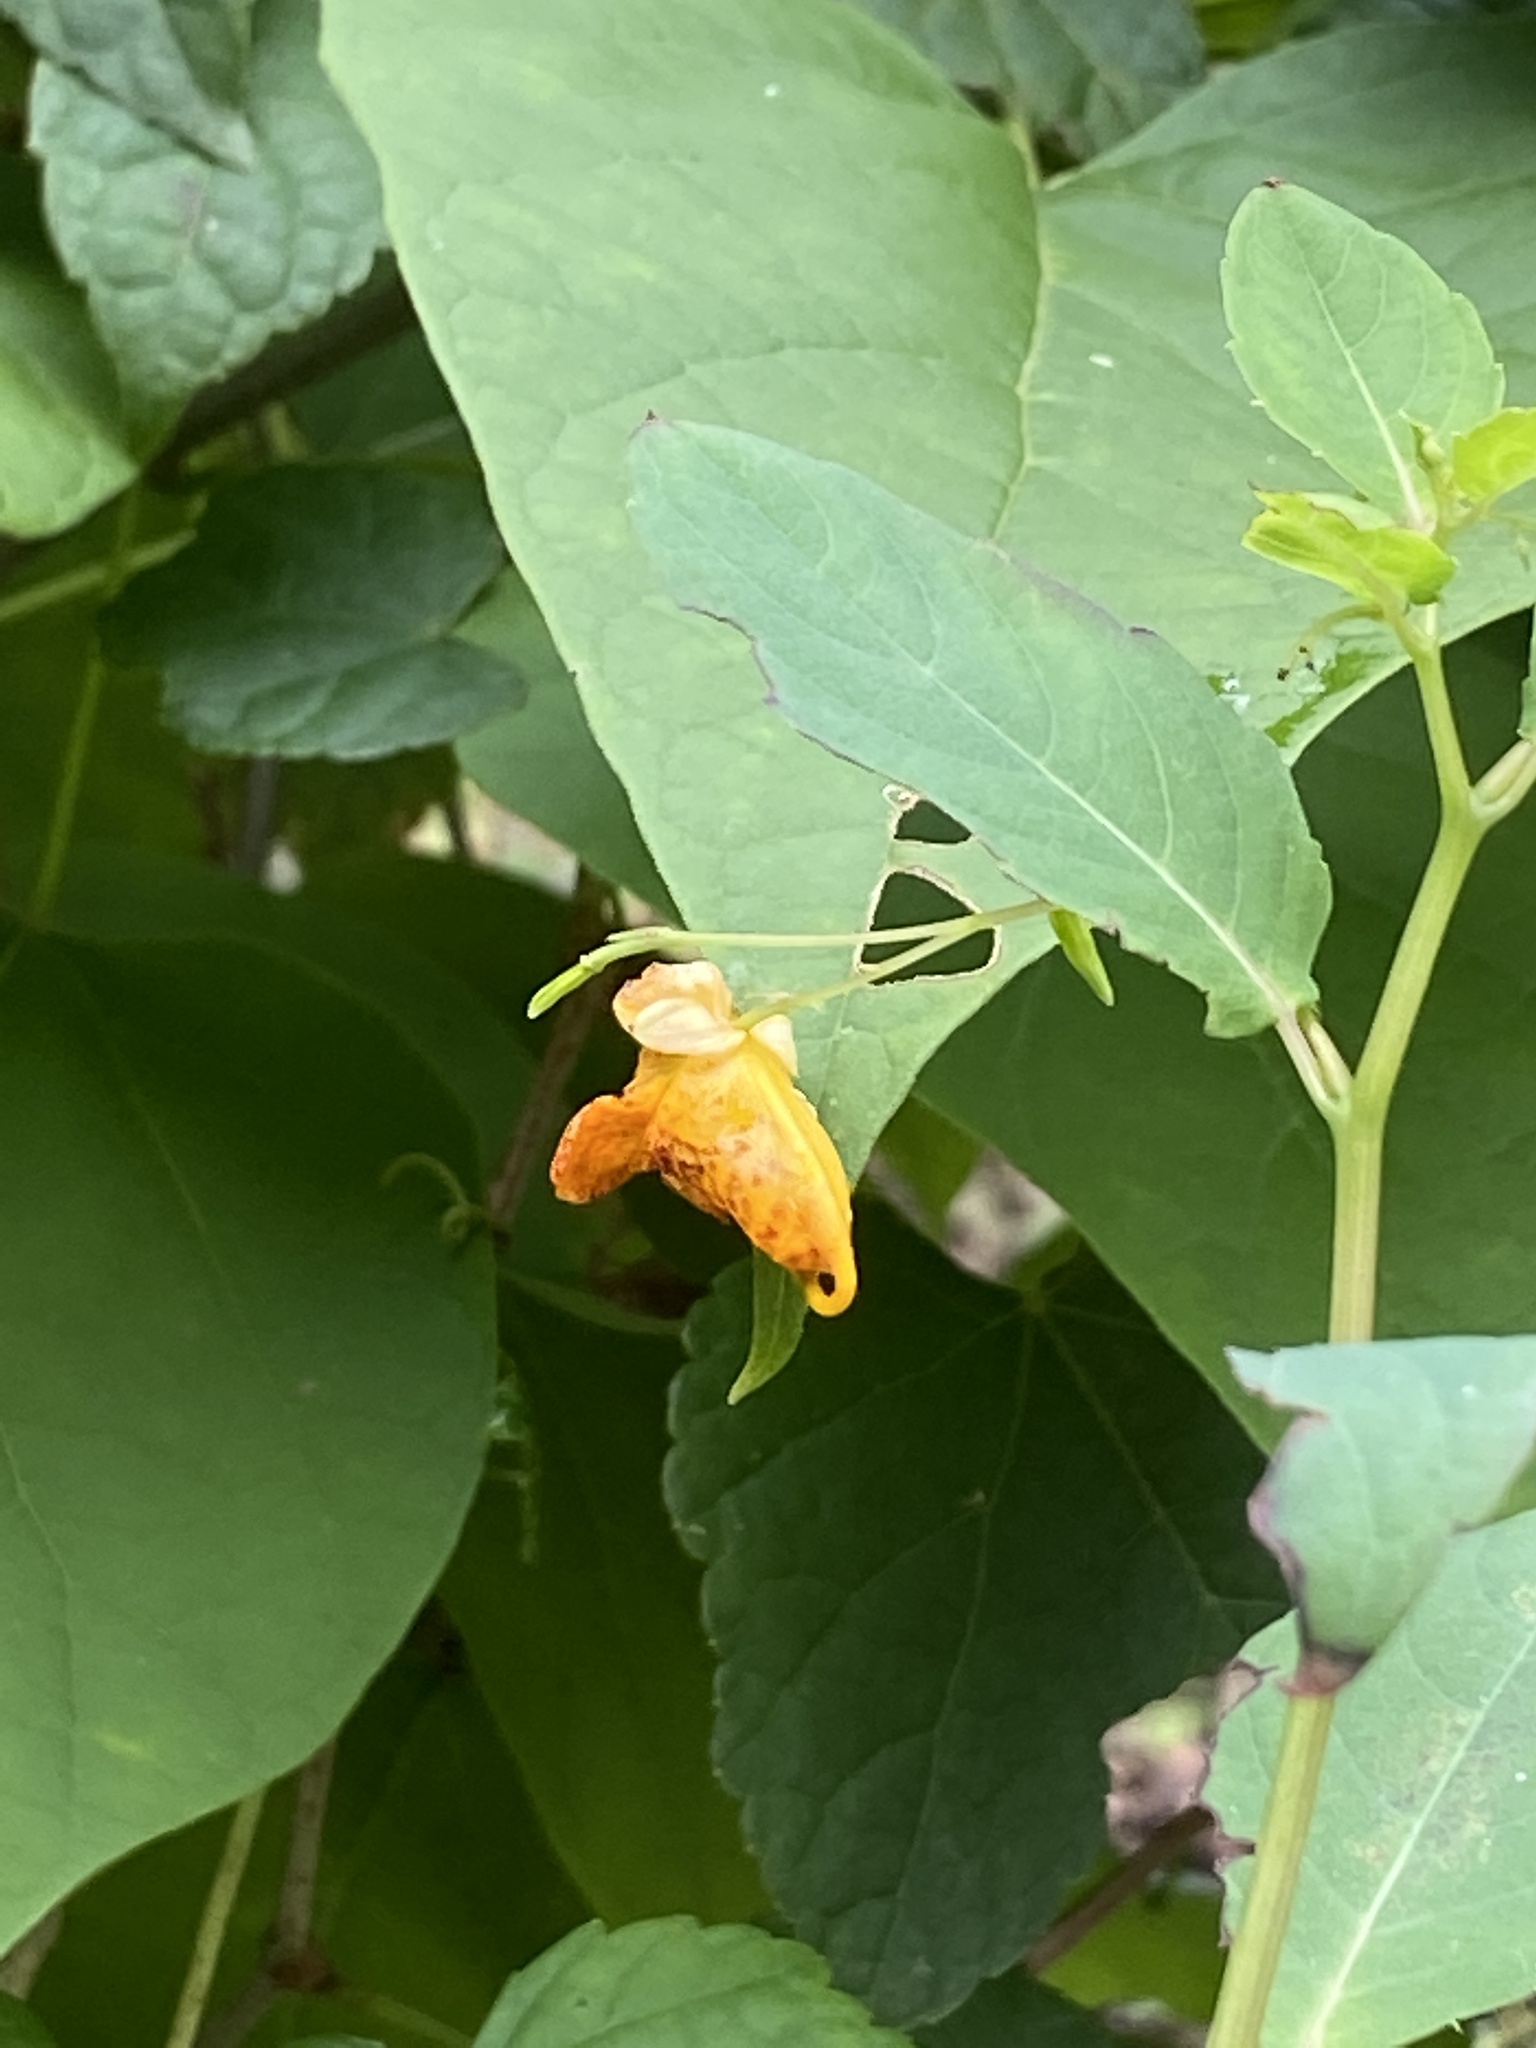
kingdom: Plantae
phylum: Tracheophyta
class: Magnoliopsida
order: Ericales
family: Balsaminaceae
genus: Impatiens
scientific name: Impatiens capensis
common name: Orange balsam
